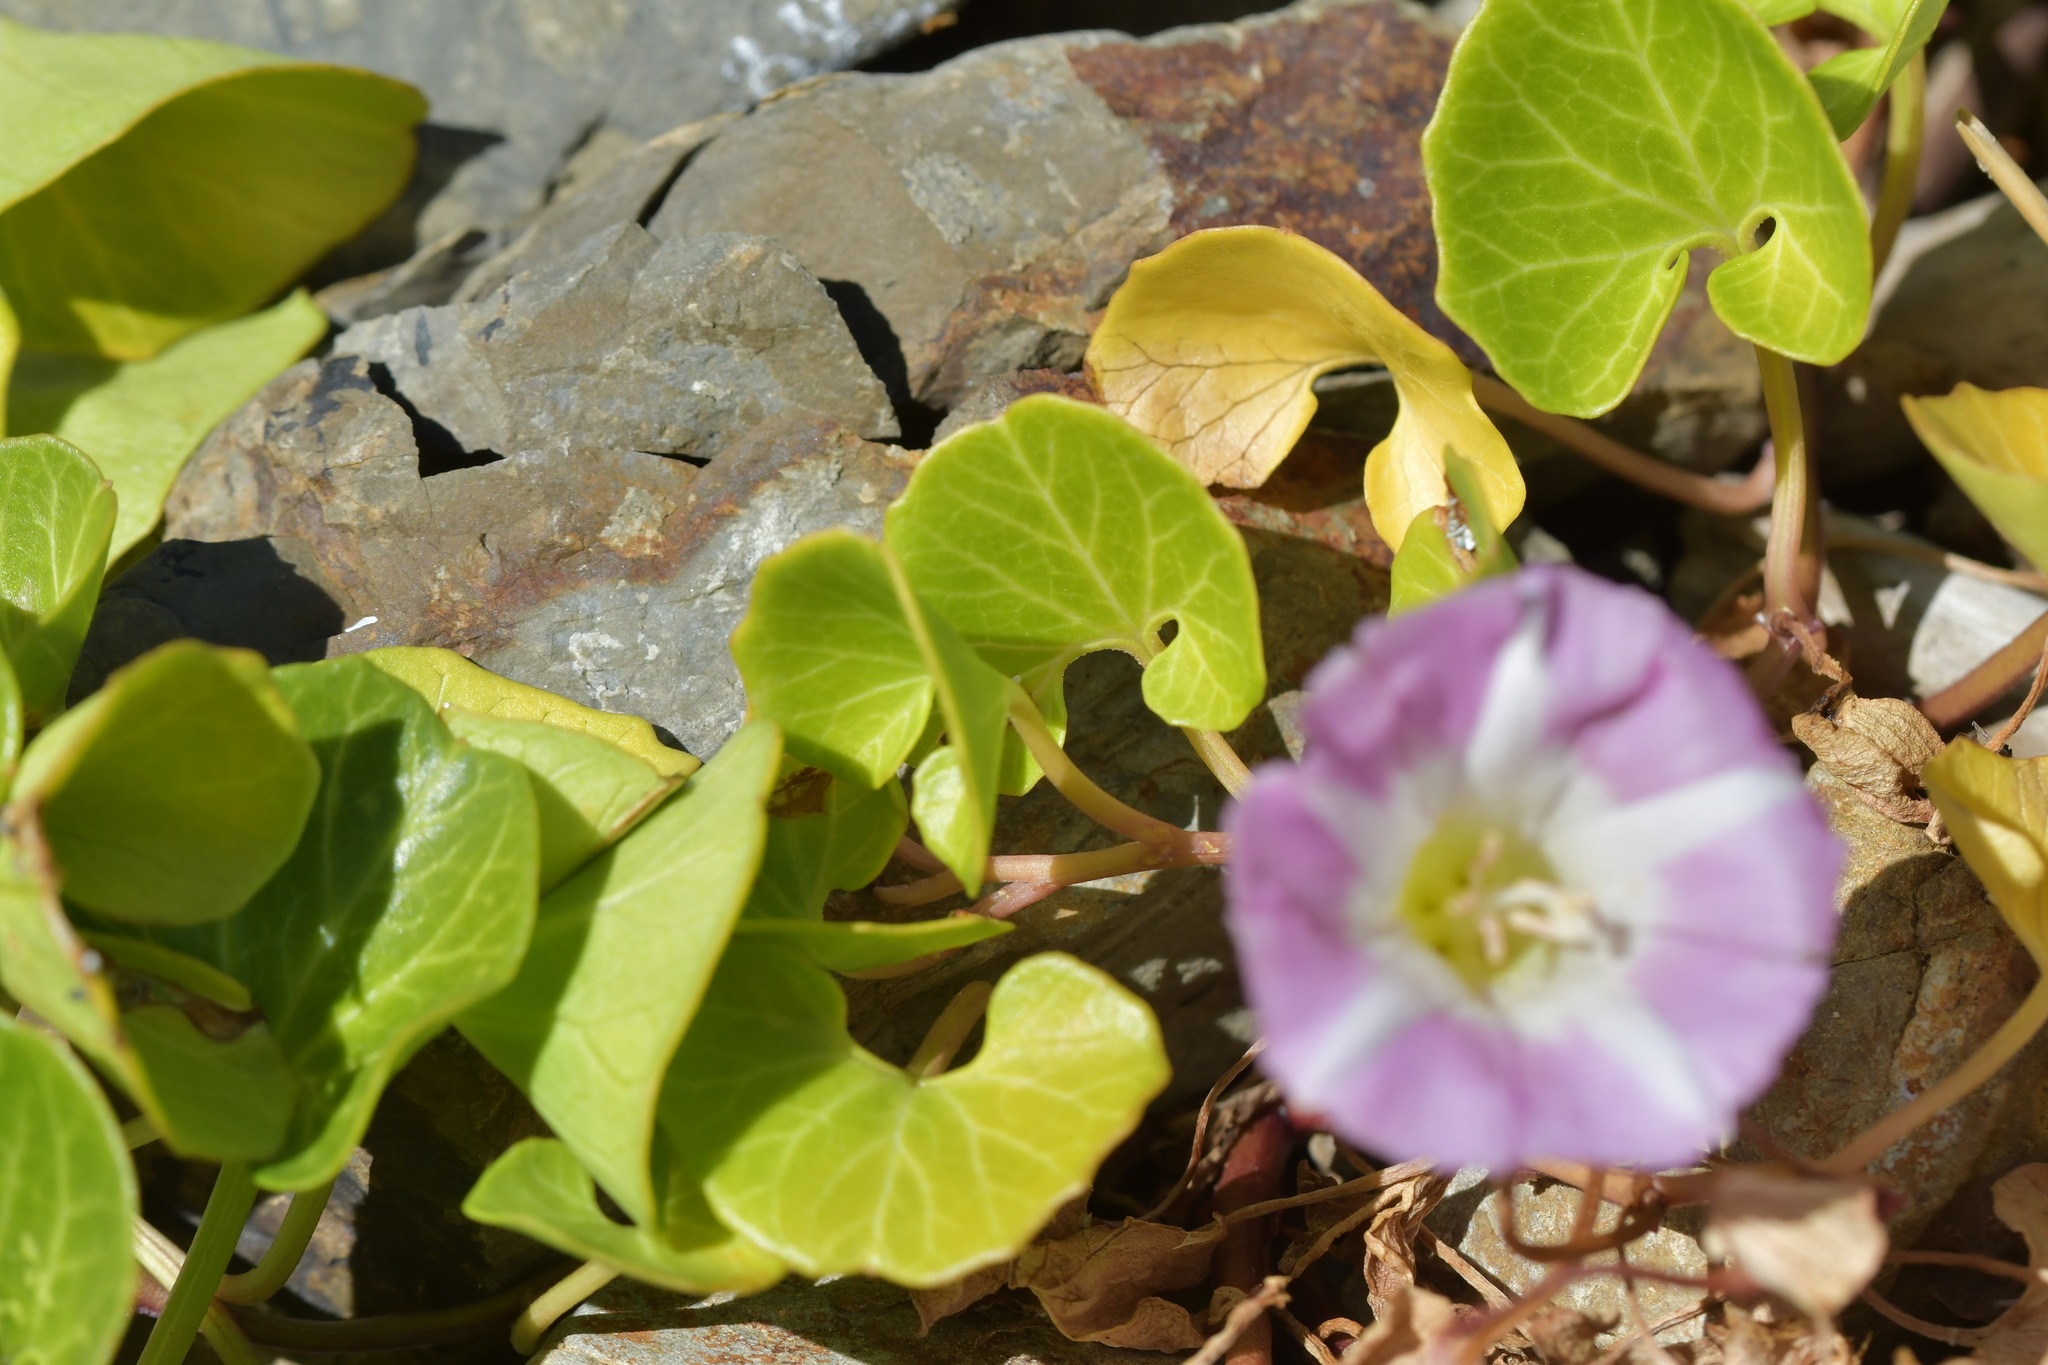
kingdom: Plantae
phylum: Tracheophyta
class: Magnoliopsida
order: Solanales
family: Convolvulaceae
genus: Calystegia
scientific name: Calystegia soldanella
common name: Sea bindweed
